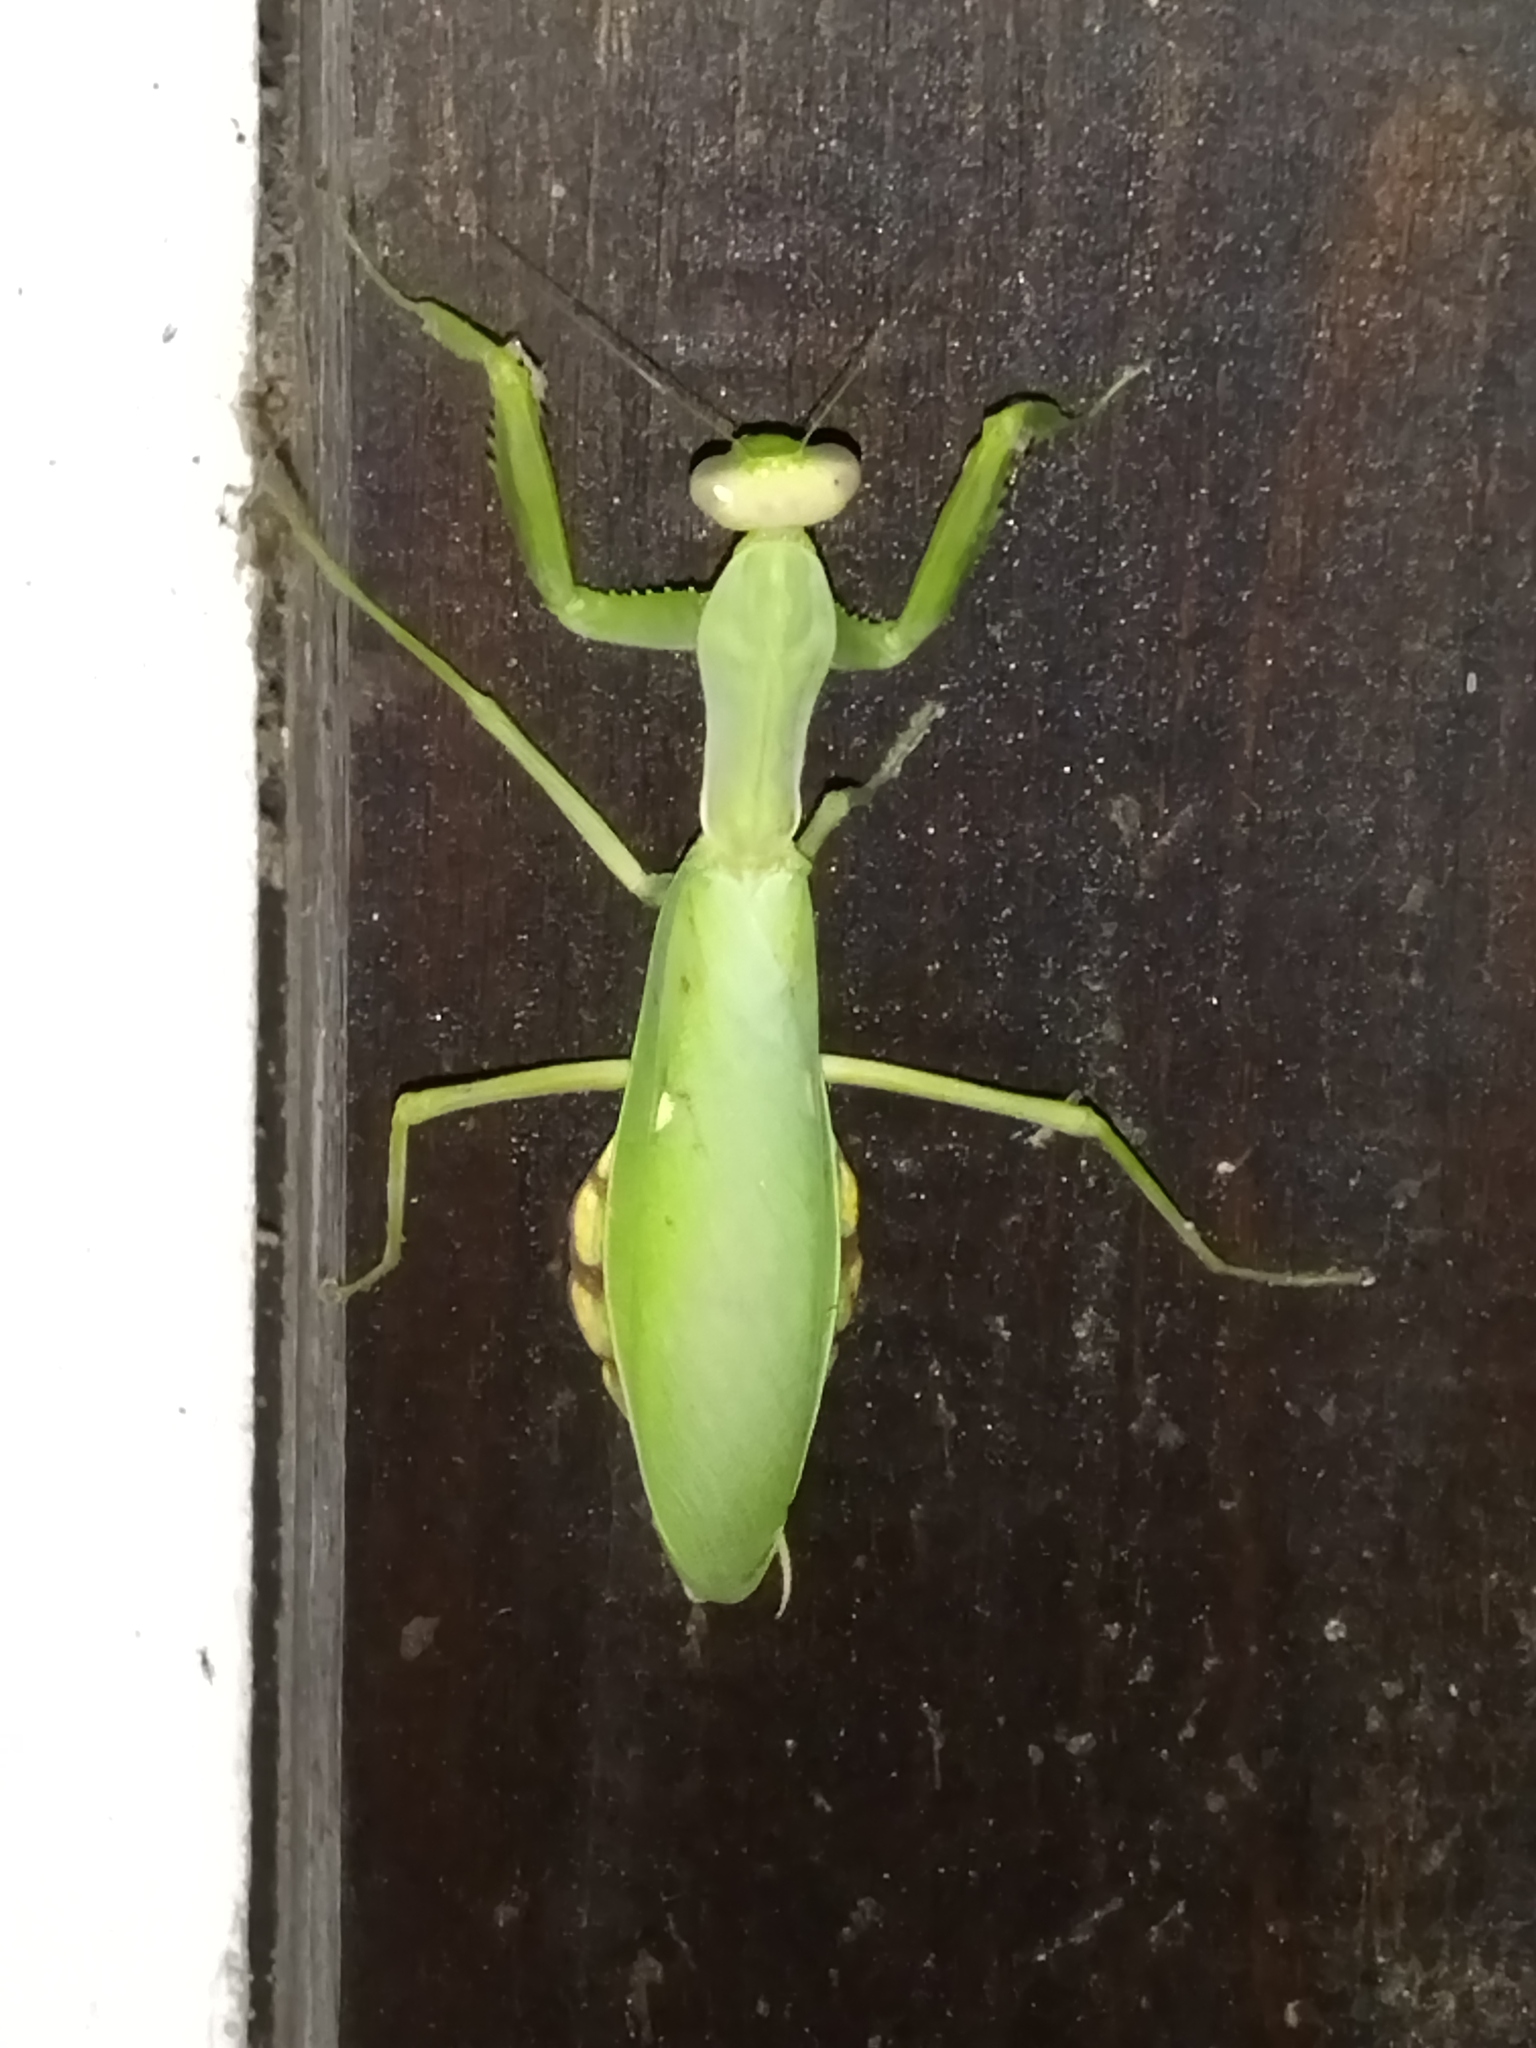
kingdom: Animalia
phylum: Arthropoda
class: Insecta
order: Mantodea
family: Mantidae
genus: Hierodula
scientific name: Hierodula transcaucasica
